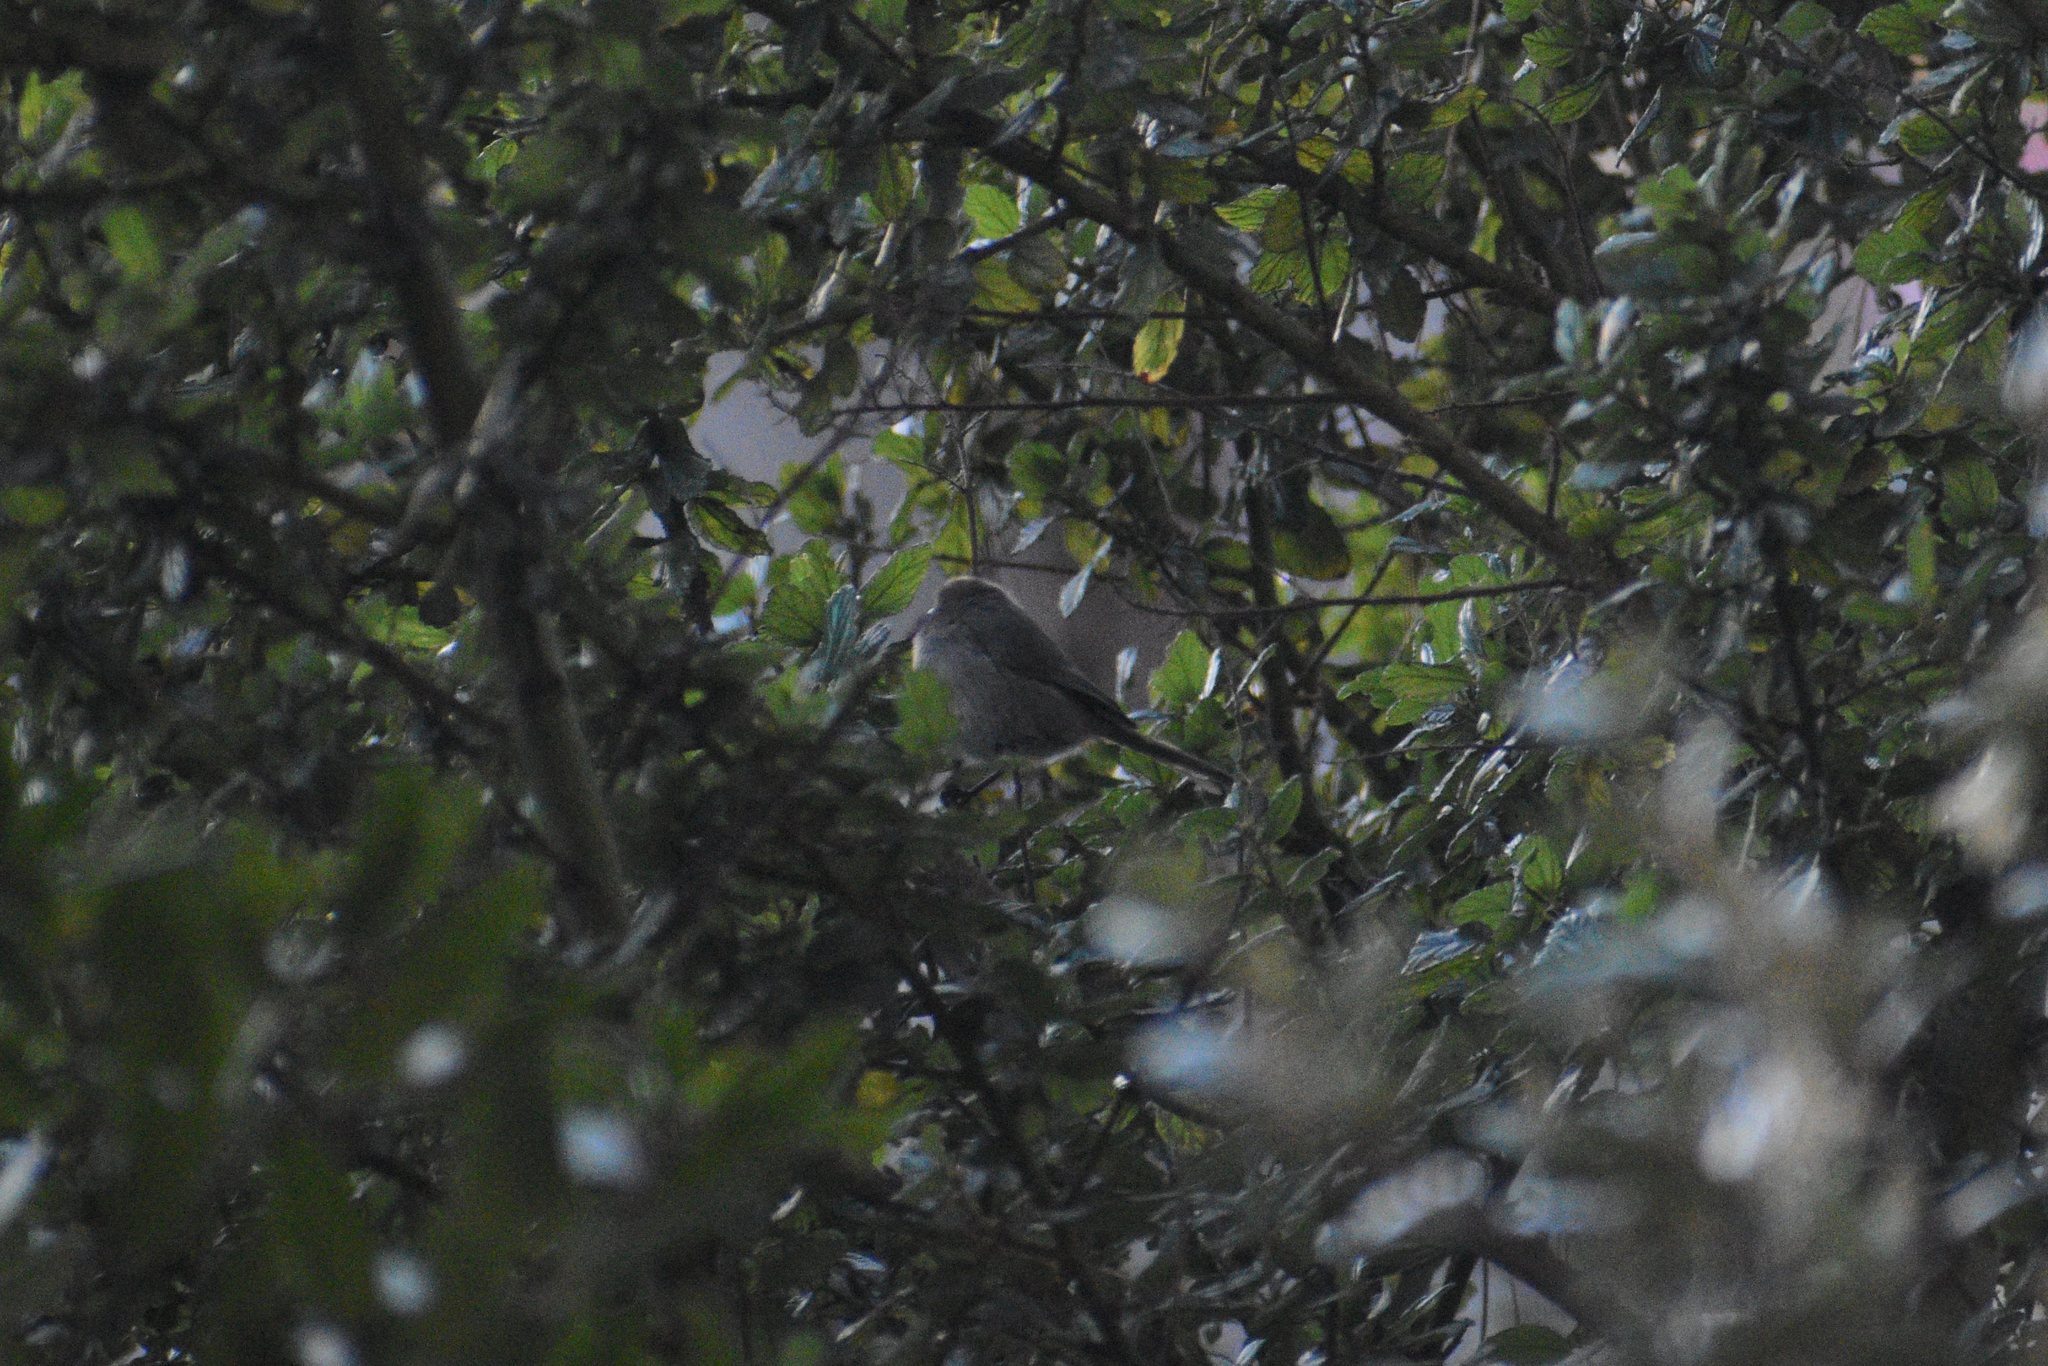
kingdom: Animalia
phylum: Chordata
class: Aves
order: Passeriformes
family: Aegithalidae
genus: Psaltriparus
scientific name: Psaltriparus minimus
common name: American bushtit
